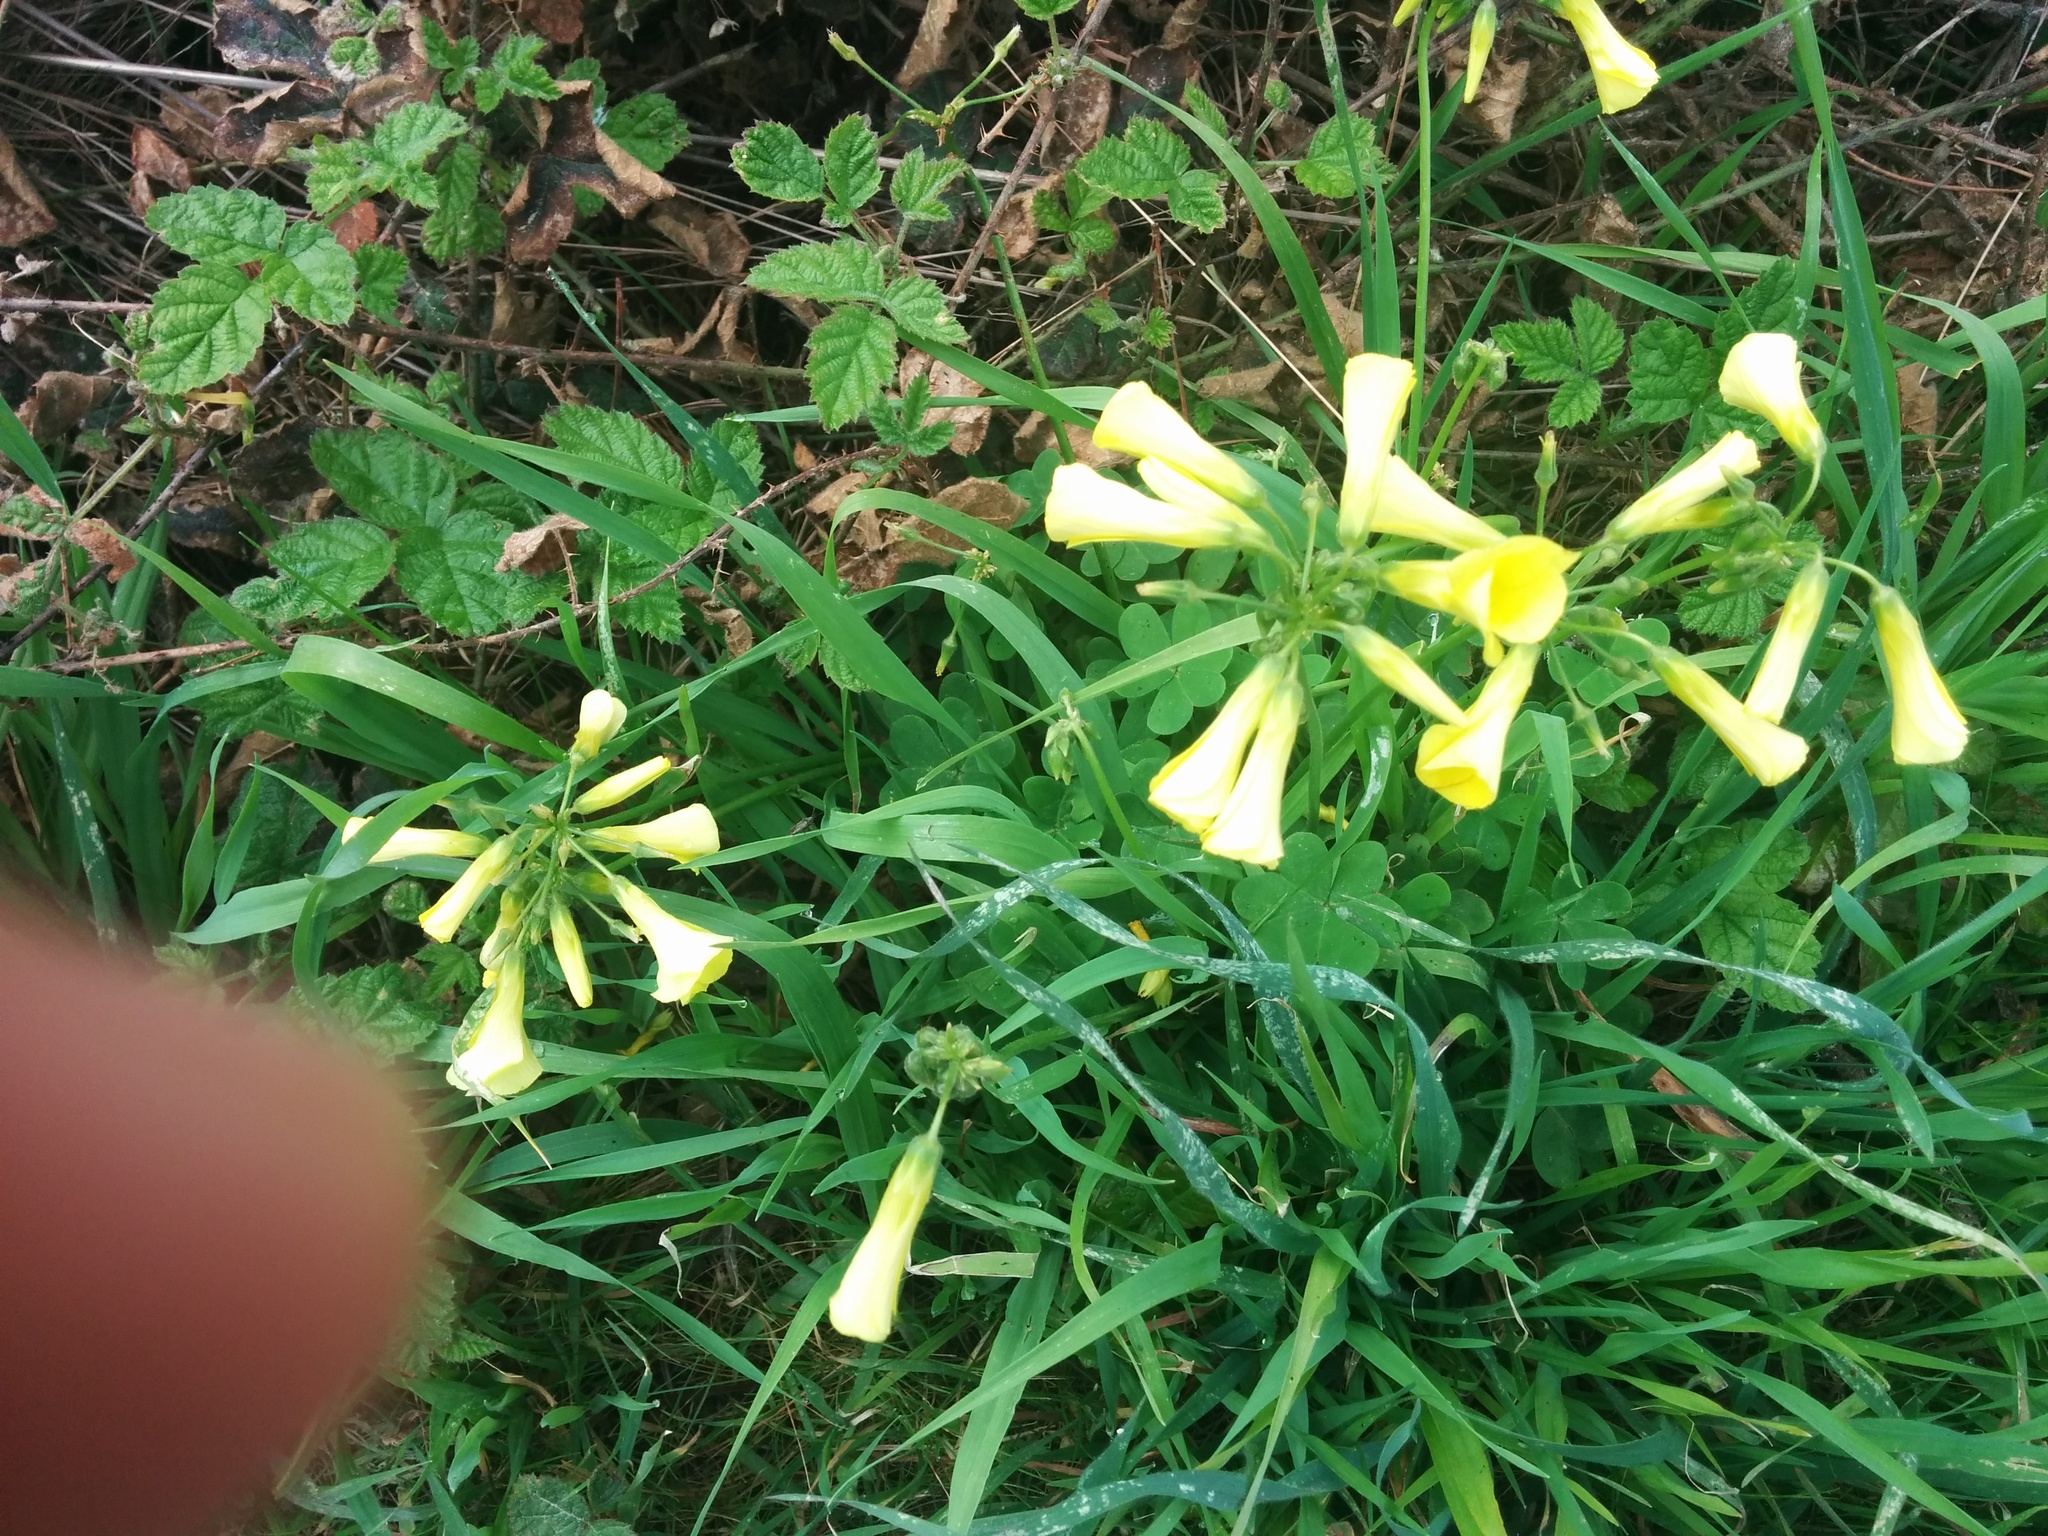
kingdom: Plantae
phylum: Tracheophyta
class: Magnoliopsida
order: Oxalidales
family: Oxalidaceae
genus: Oxalis
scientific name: Oxalis pes-caprae
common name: Bermuda-buttercup
